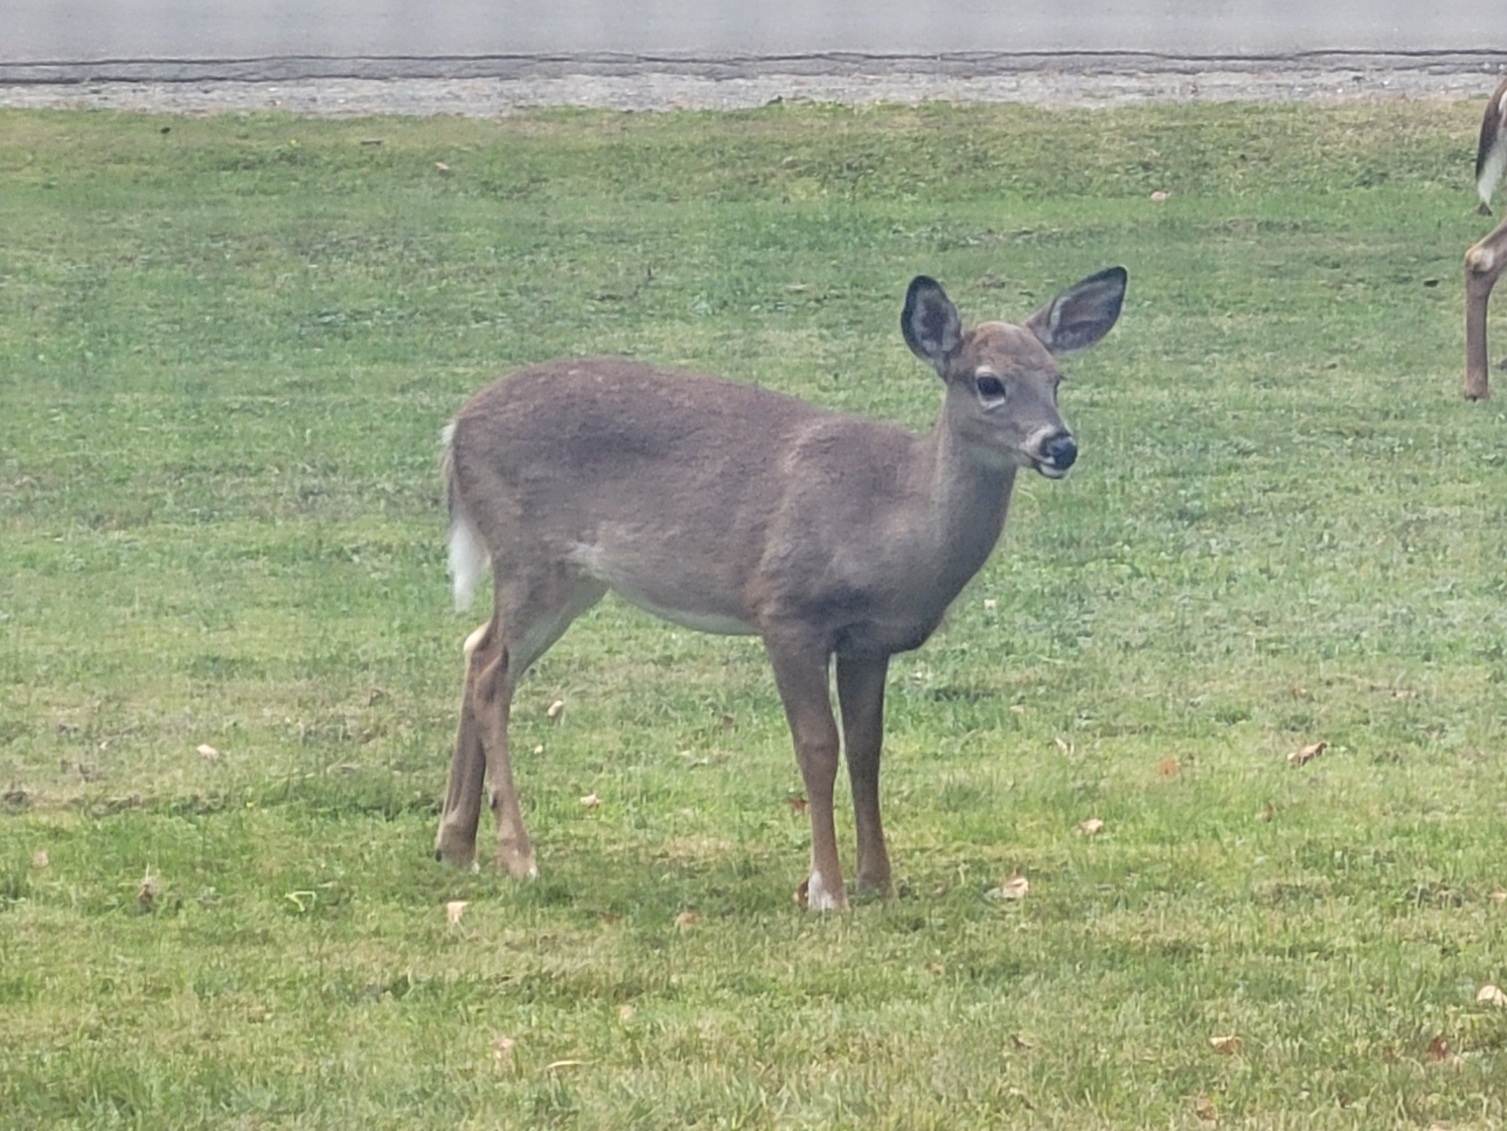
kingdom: Animalia
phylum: Chordata
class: Mammalia
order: Artiodactyla
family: Cervidae
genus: Odocoileus
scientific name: Odocoileus virginianus
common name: White-tailed deer
